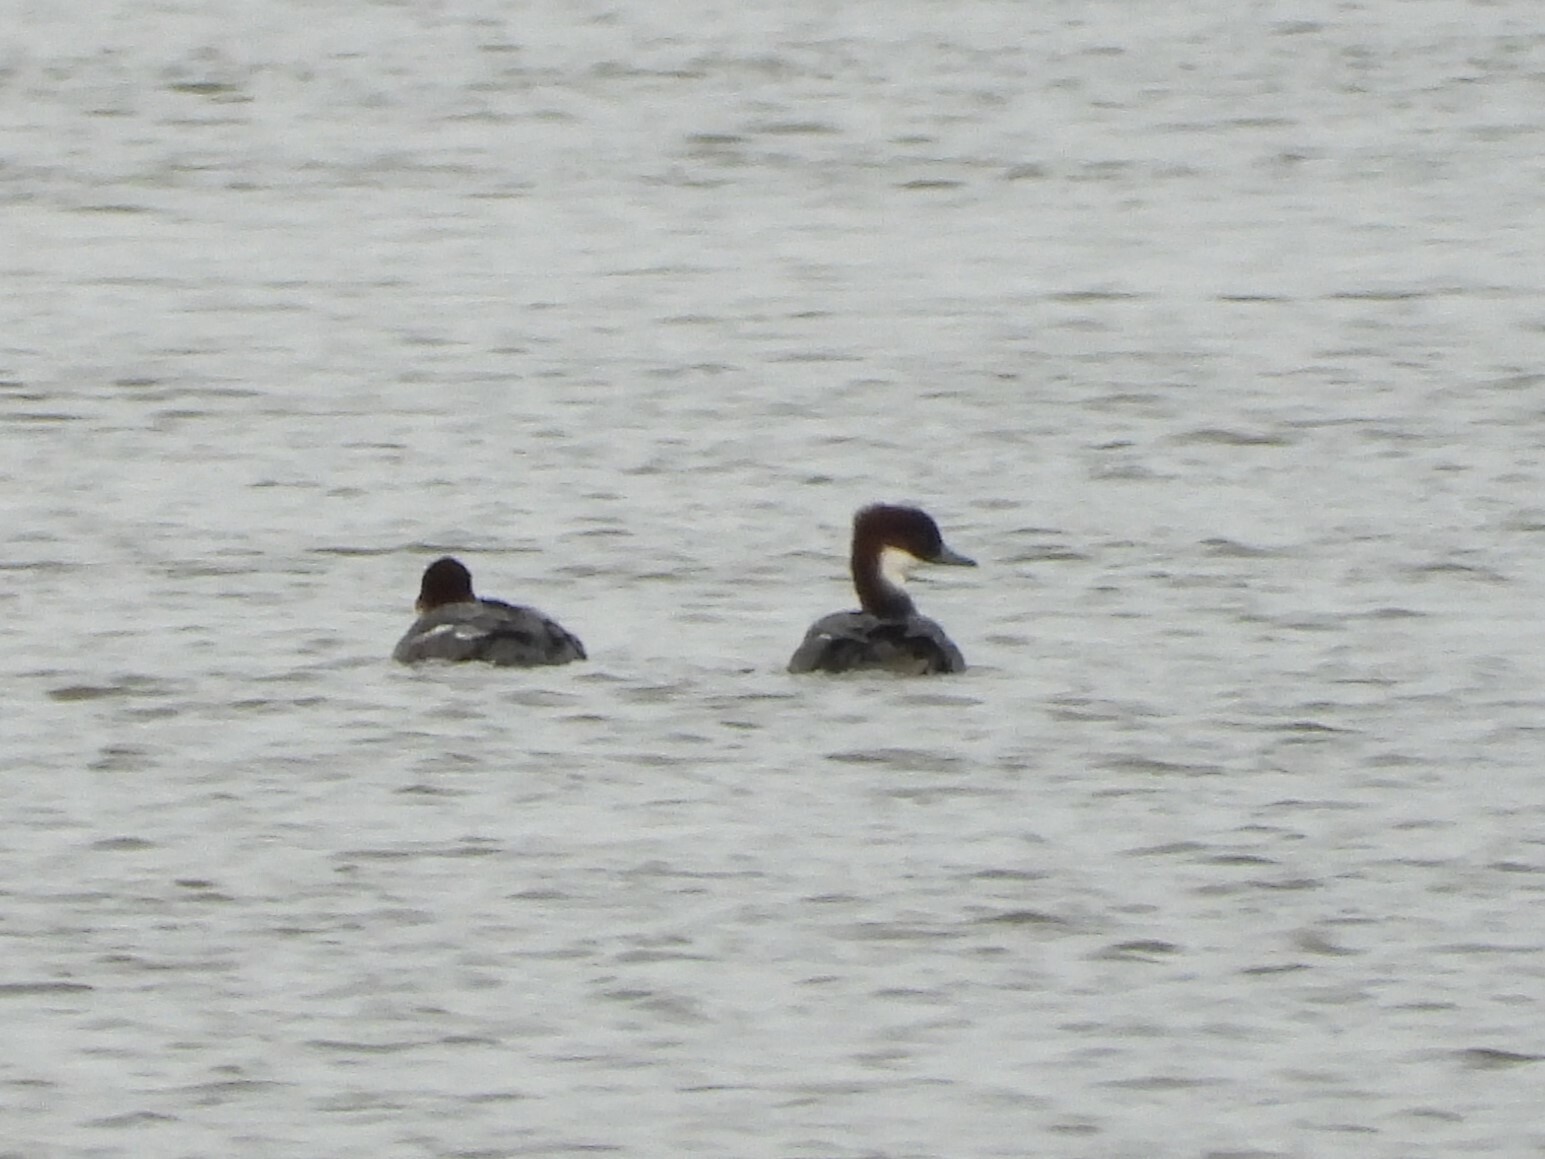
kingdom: Animalia
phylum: Chordata
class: Aves
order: Anseriformes
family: Anatidae
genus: Mergellus
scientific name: Mergellus albellus
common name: Smew
